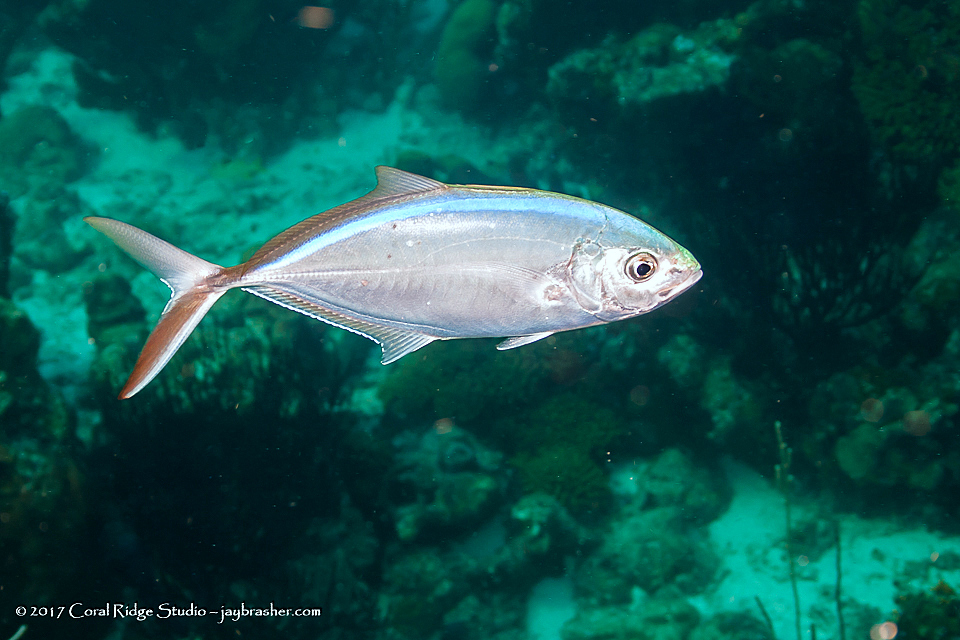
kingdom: Animalia
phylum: Chordata
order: Perciformes
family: Carangidae
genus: Caranx
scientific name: Caranx ruber
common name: Bar jack
